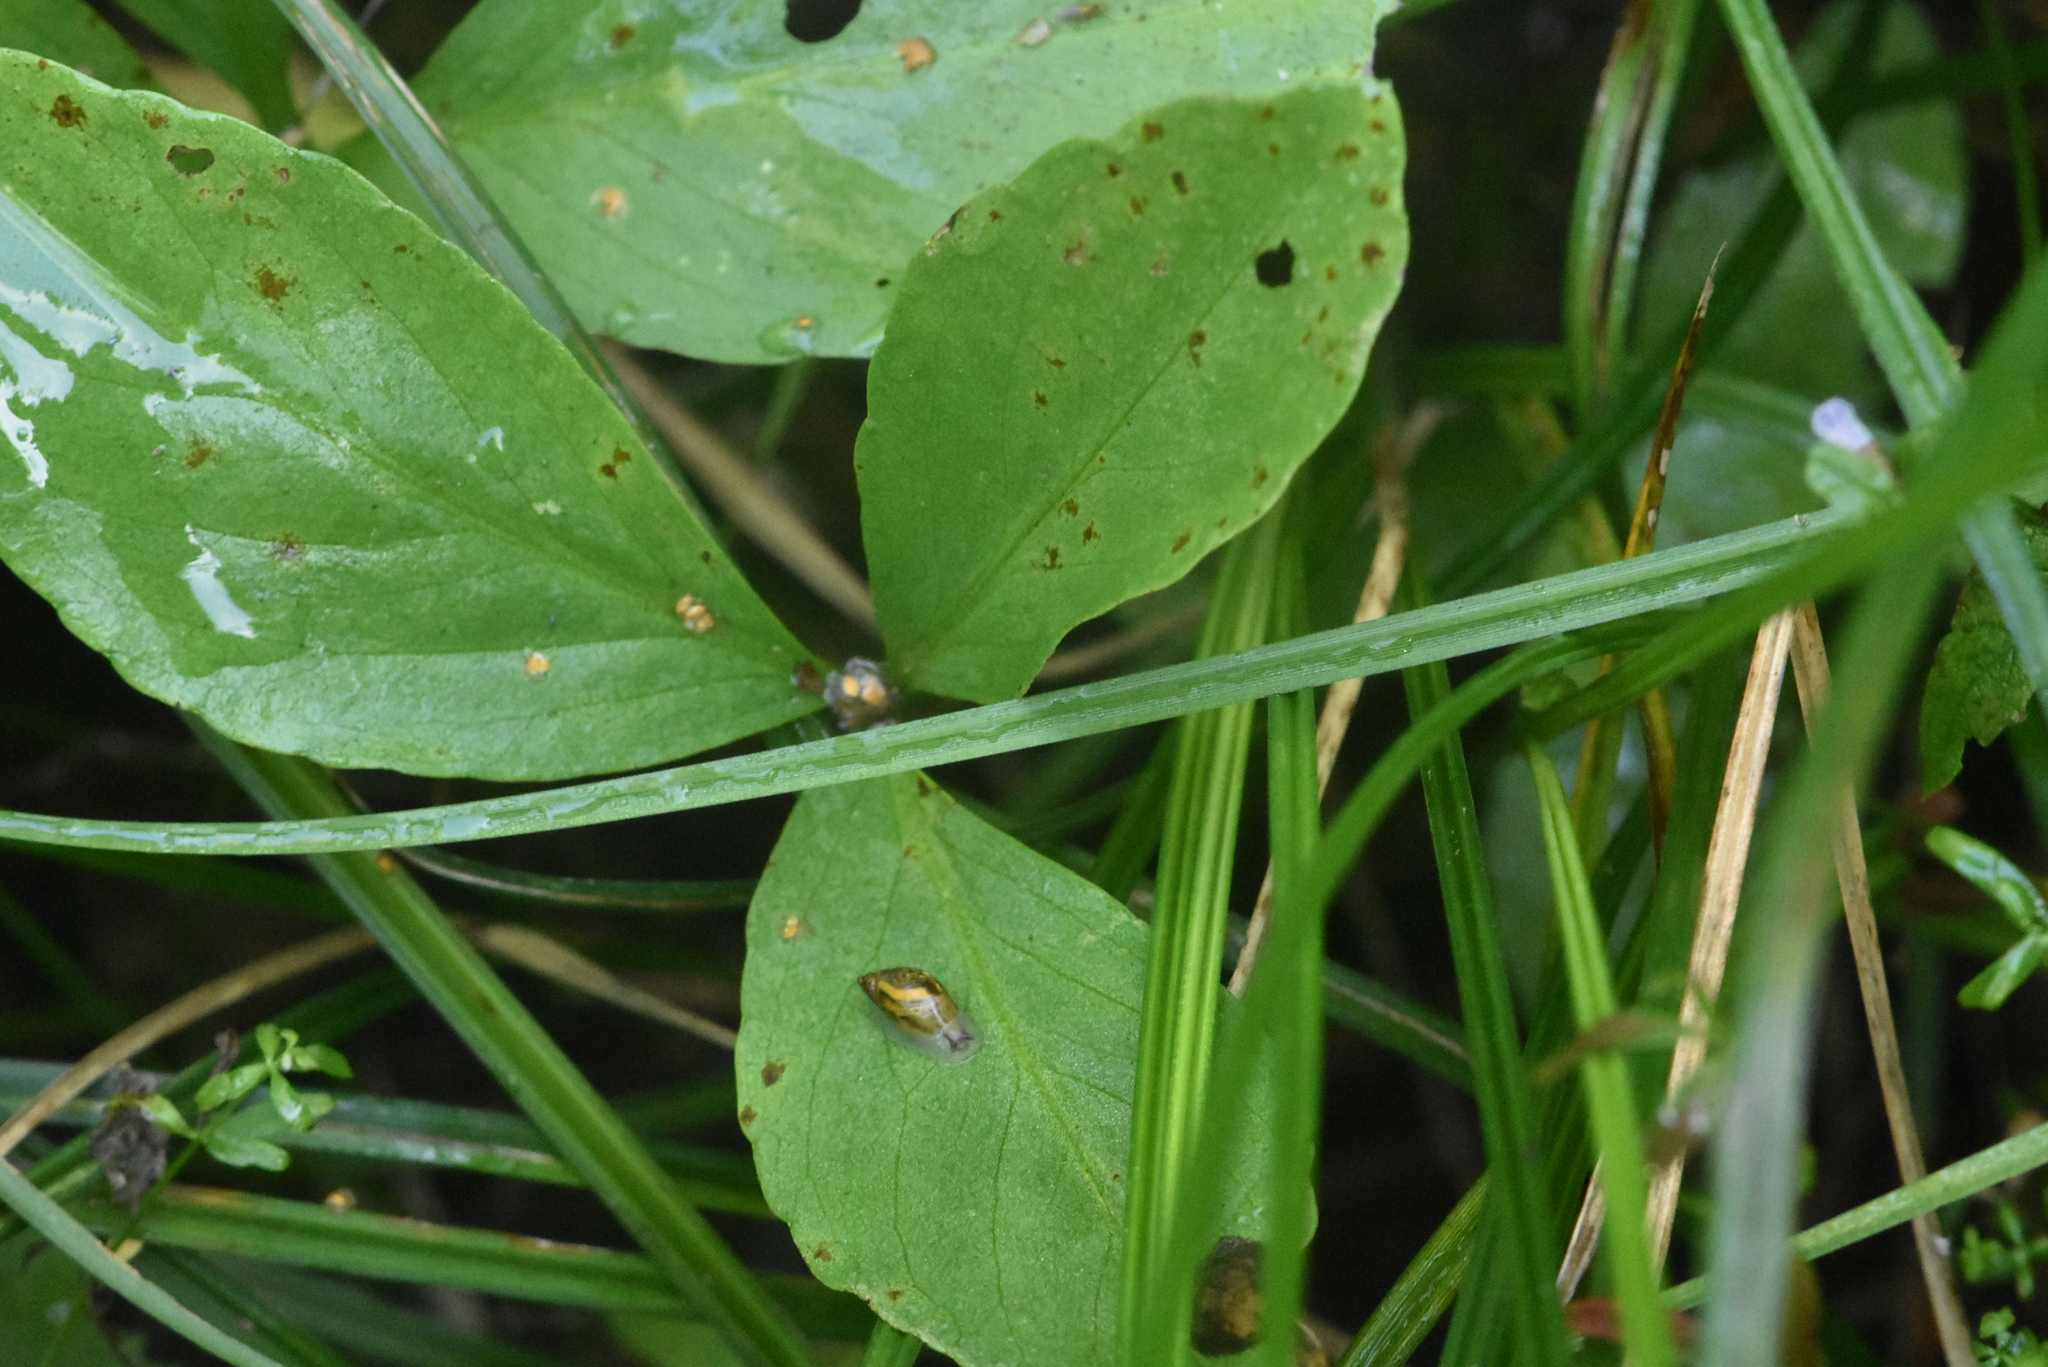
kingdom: Plantae
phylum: Tracheophyta
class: Magnoliopsida
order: Asterales
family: Menyanthaceae
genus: Menyanthes
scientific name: Menyanthes trifoliata
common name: Bogbean
